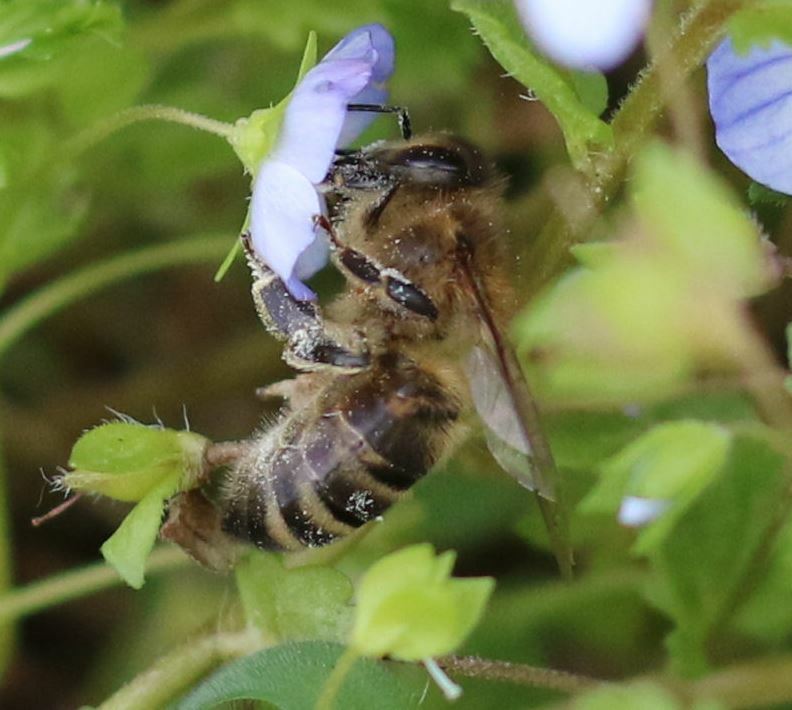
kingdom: Animalia
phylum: Arthropoda
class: Insecta
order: Hymenoptera
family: Apidae
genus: Apis
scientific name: Apis mellifera
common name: Honey bee
